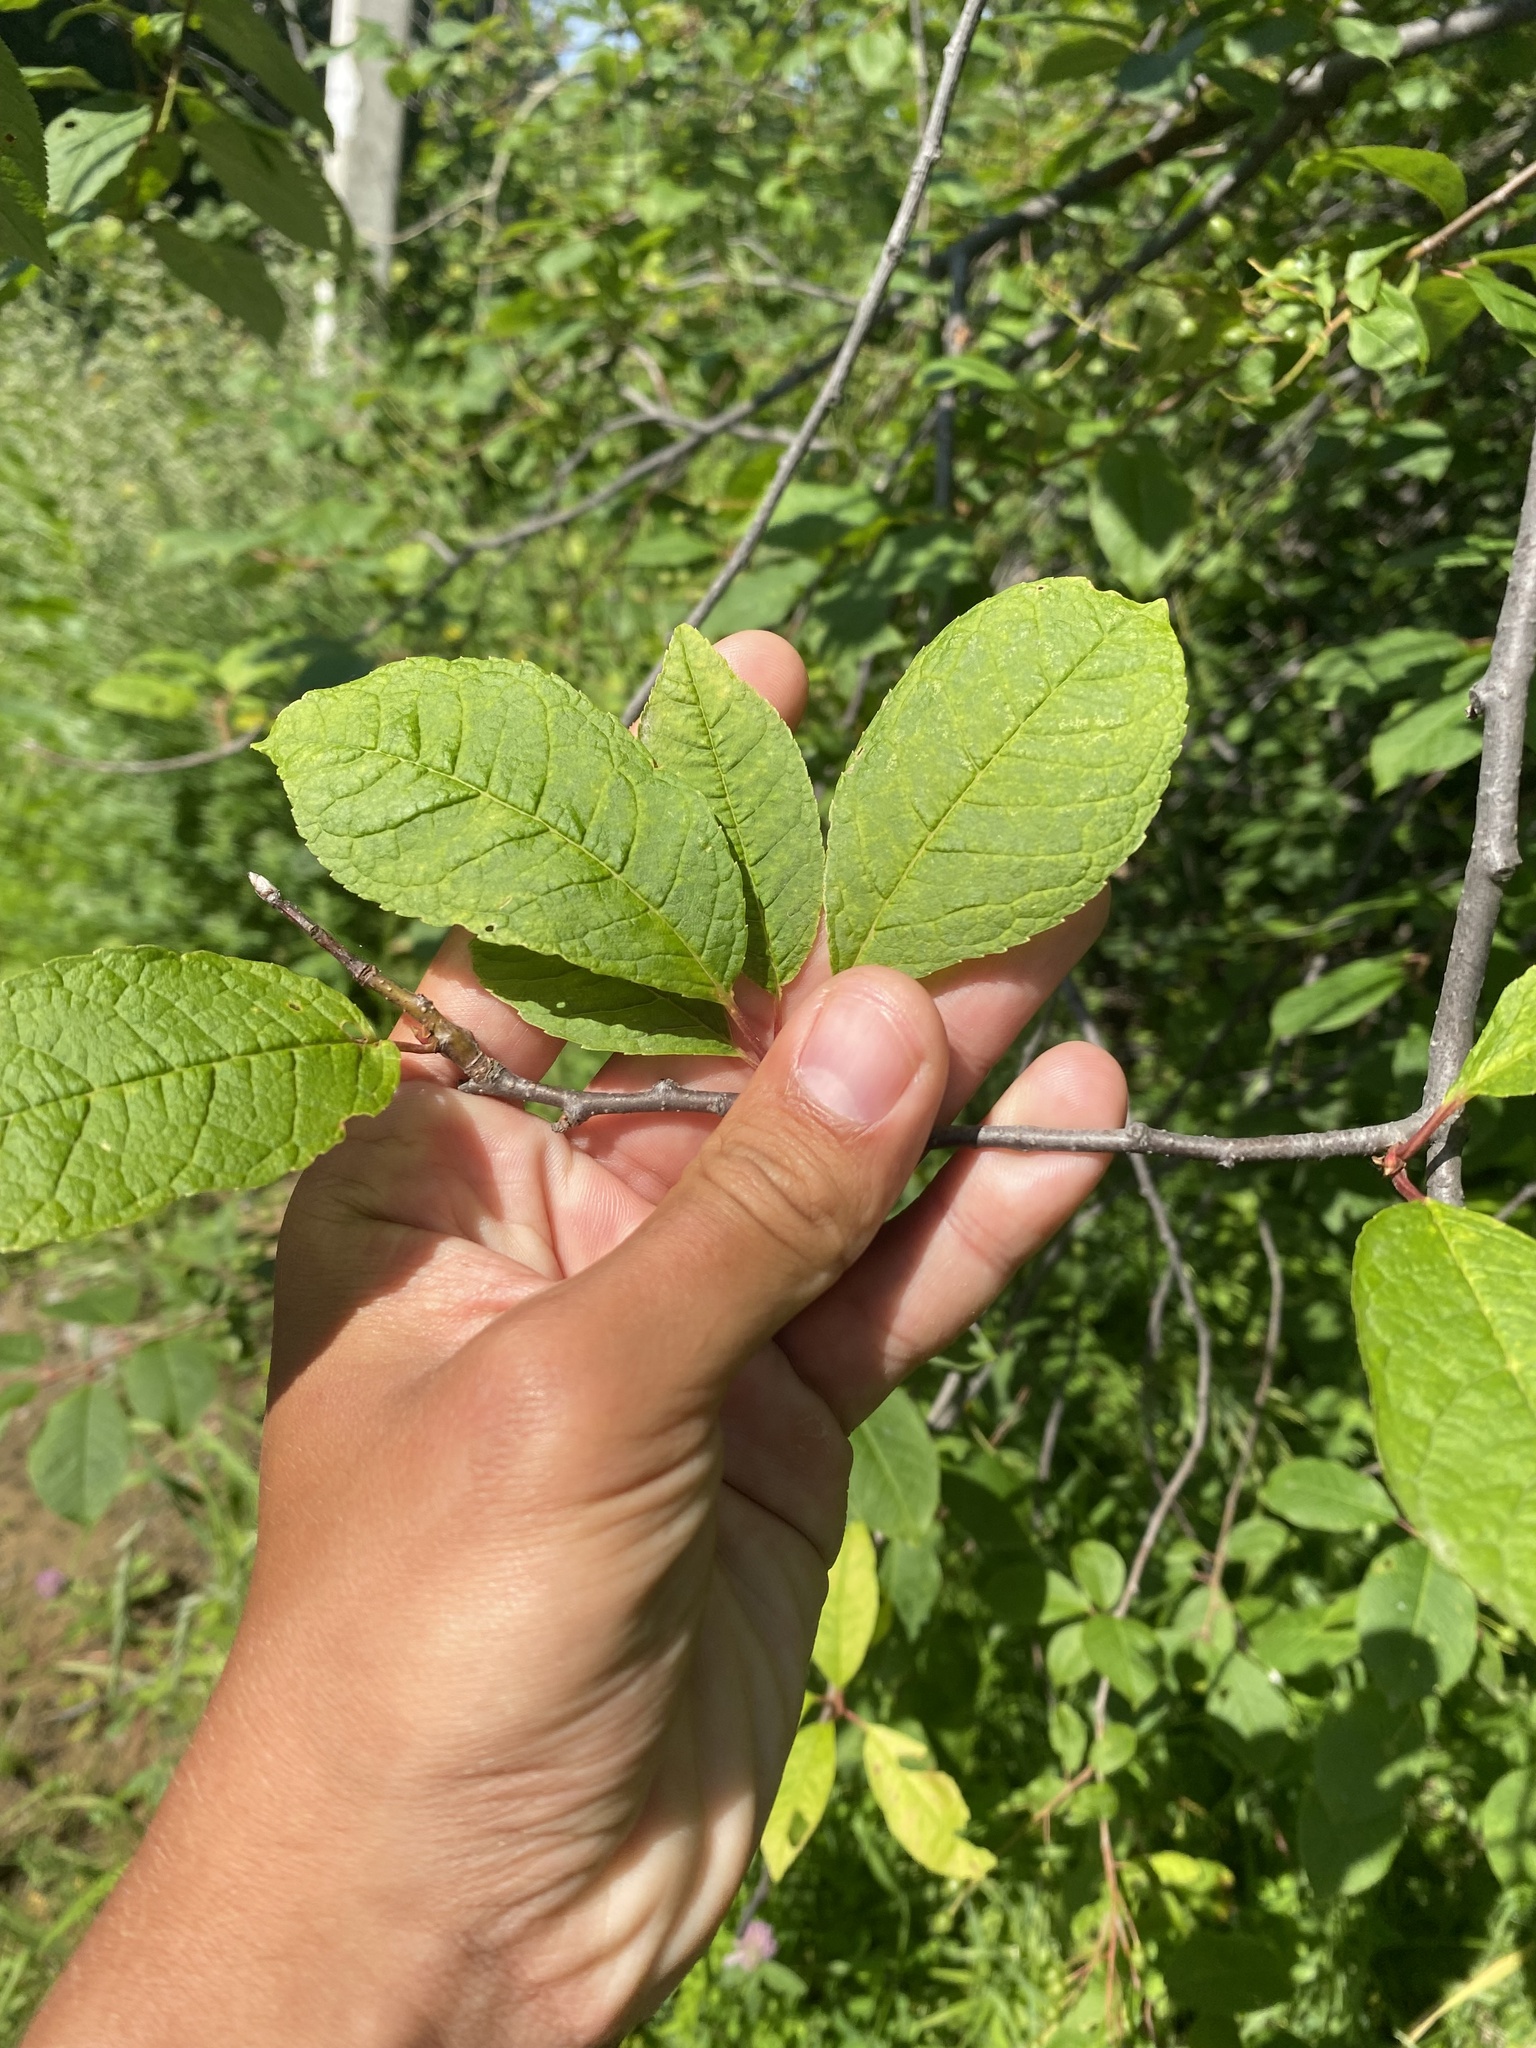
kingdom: Plantae
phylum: Tracheophyta
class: Magnoliopsida
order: Rosales
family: Rosaceae
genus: Prunus
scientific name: Prunus padus
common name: Bird cherry
